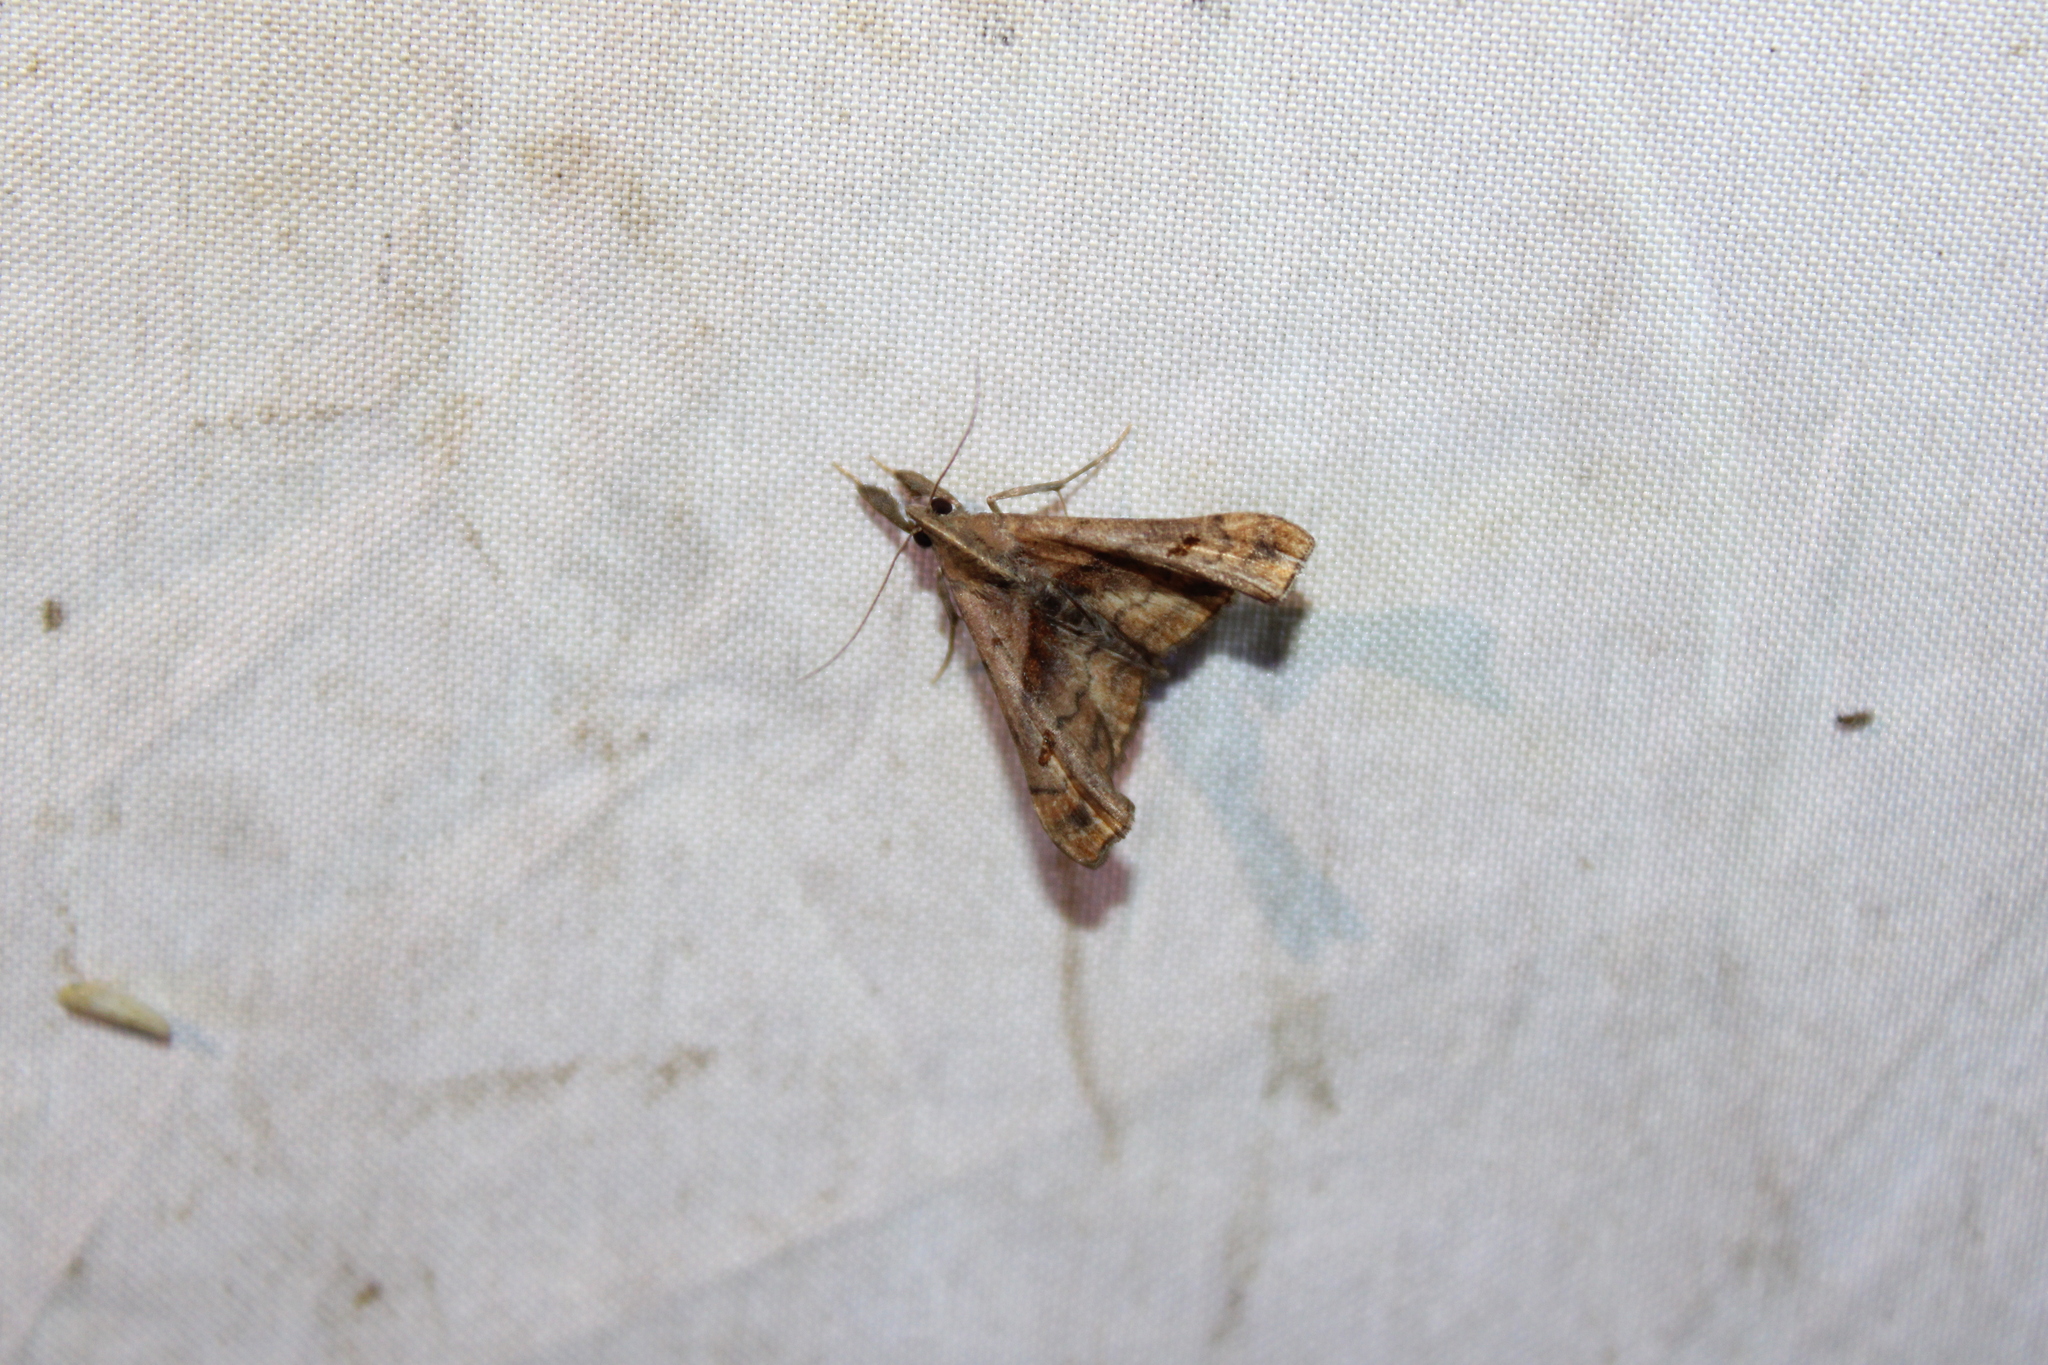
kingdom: Animalia
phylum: Arthropoda
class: Insecta
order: Lepidoptera
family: Erebidae
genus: Palthis
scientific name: Palthis angulalis
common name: Dark-spotted palthis moth
